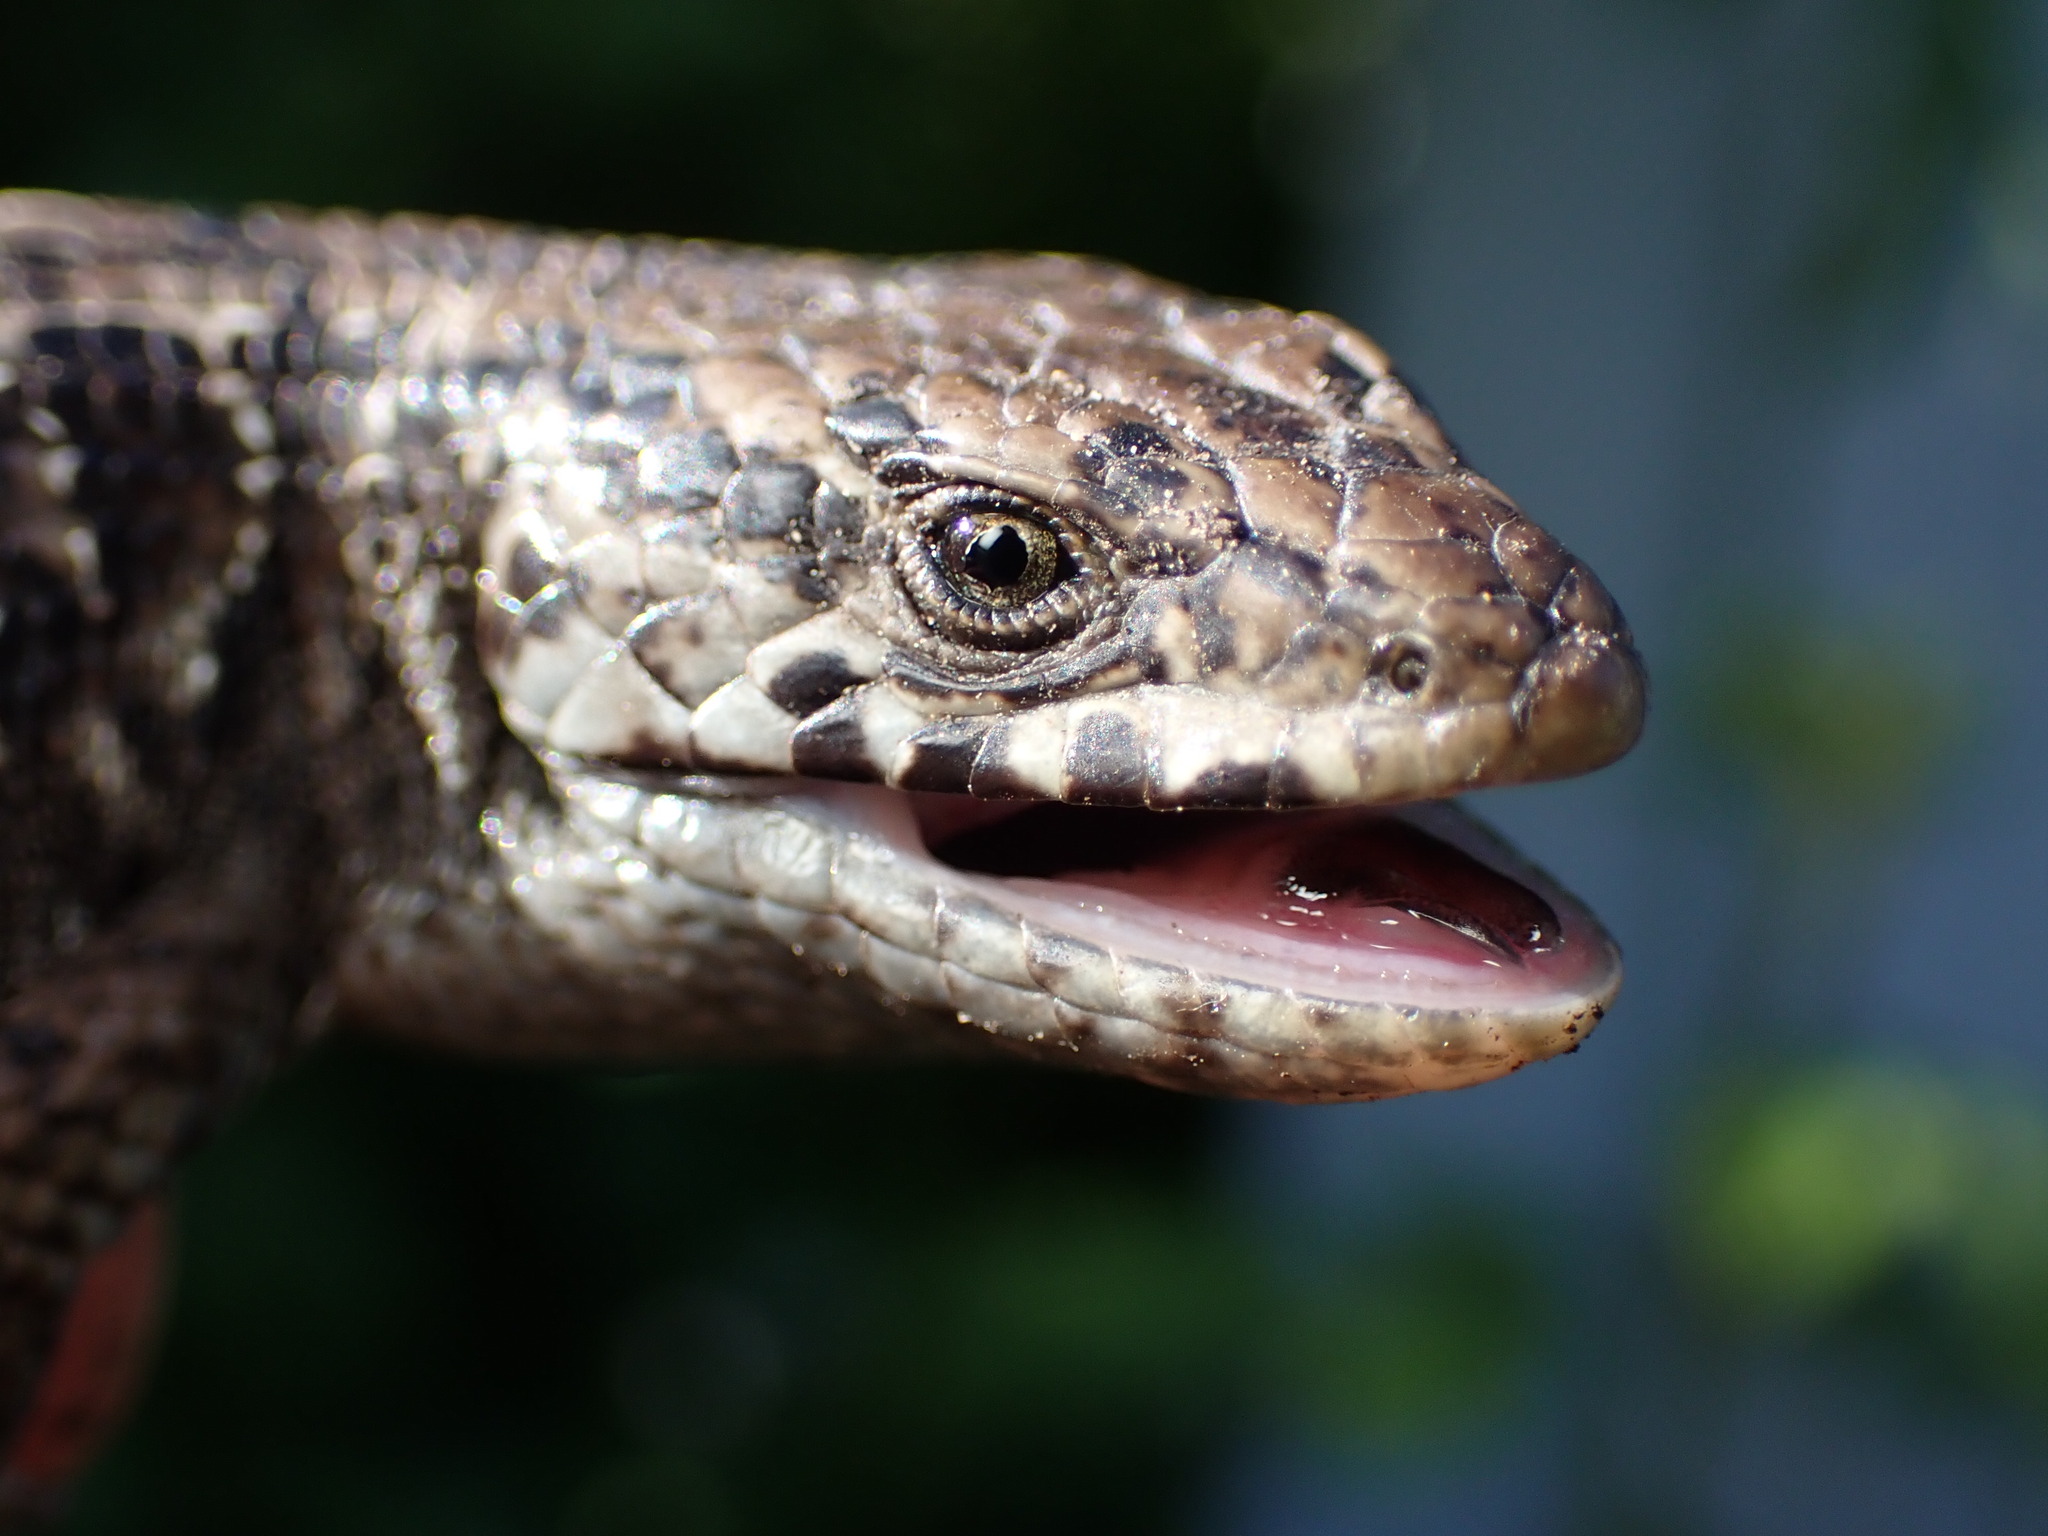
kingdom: Animalia
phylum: Chordata
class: Squamata
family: Anguidae
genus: Elgaria
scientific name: Elgaria coerulea
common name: Northern alligator lizard
